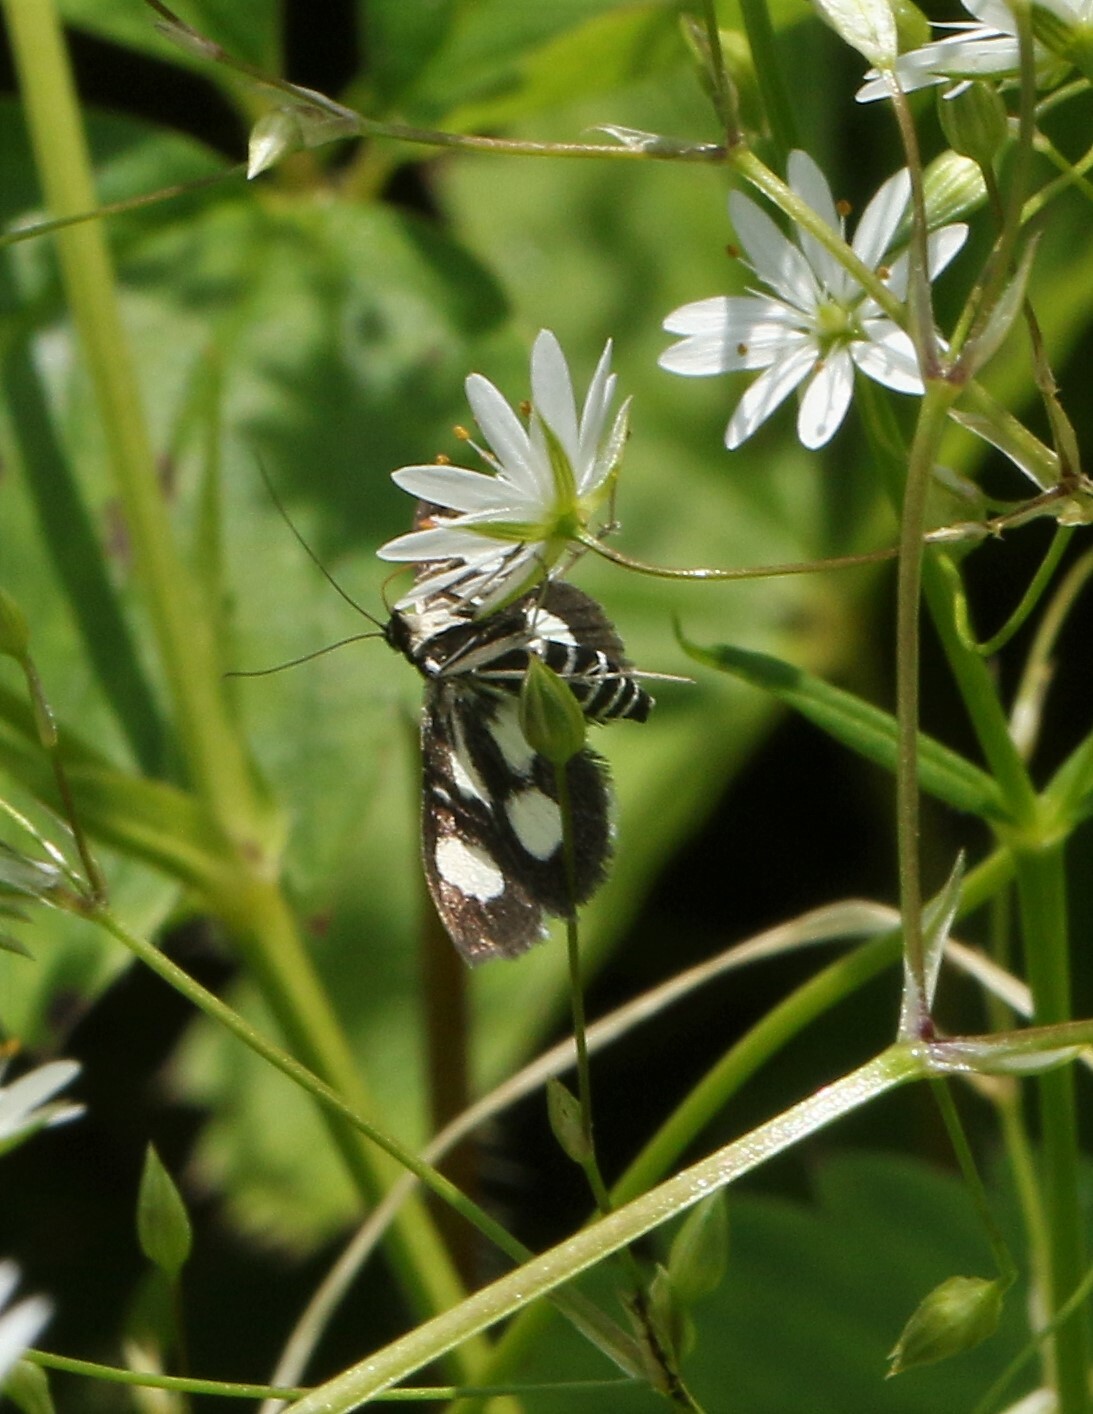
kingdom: Animalia
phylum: Arthropoda
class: Insecta
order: Lepidoptera
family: Crambidae
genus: Anania
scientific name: Anania funebris
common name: White-spotted sable moth
